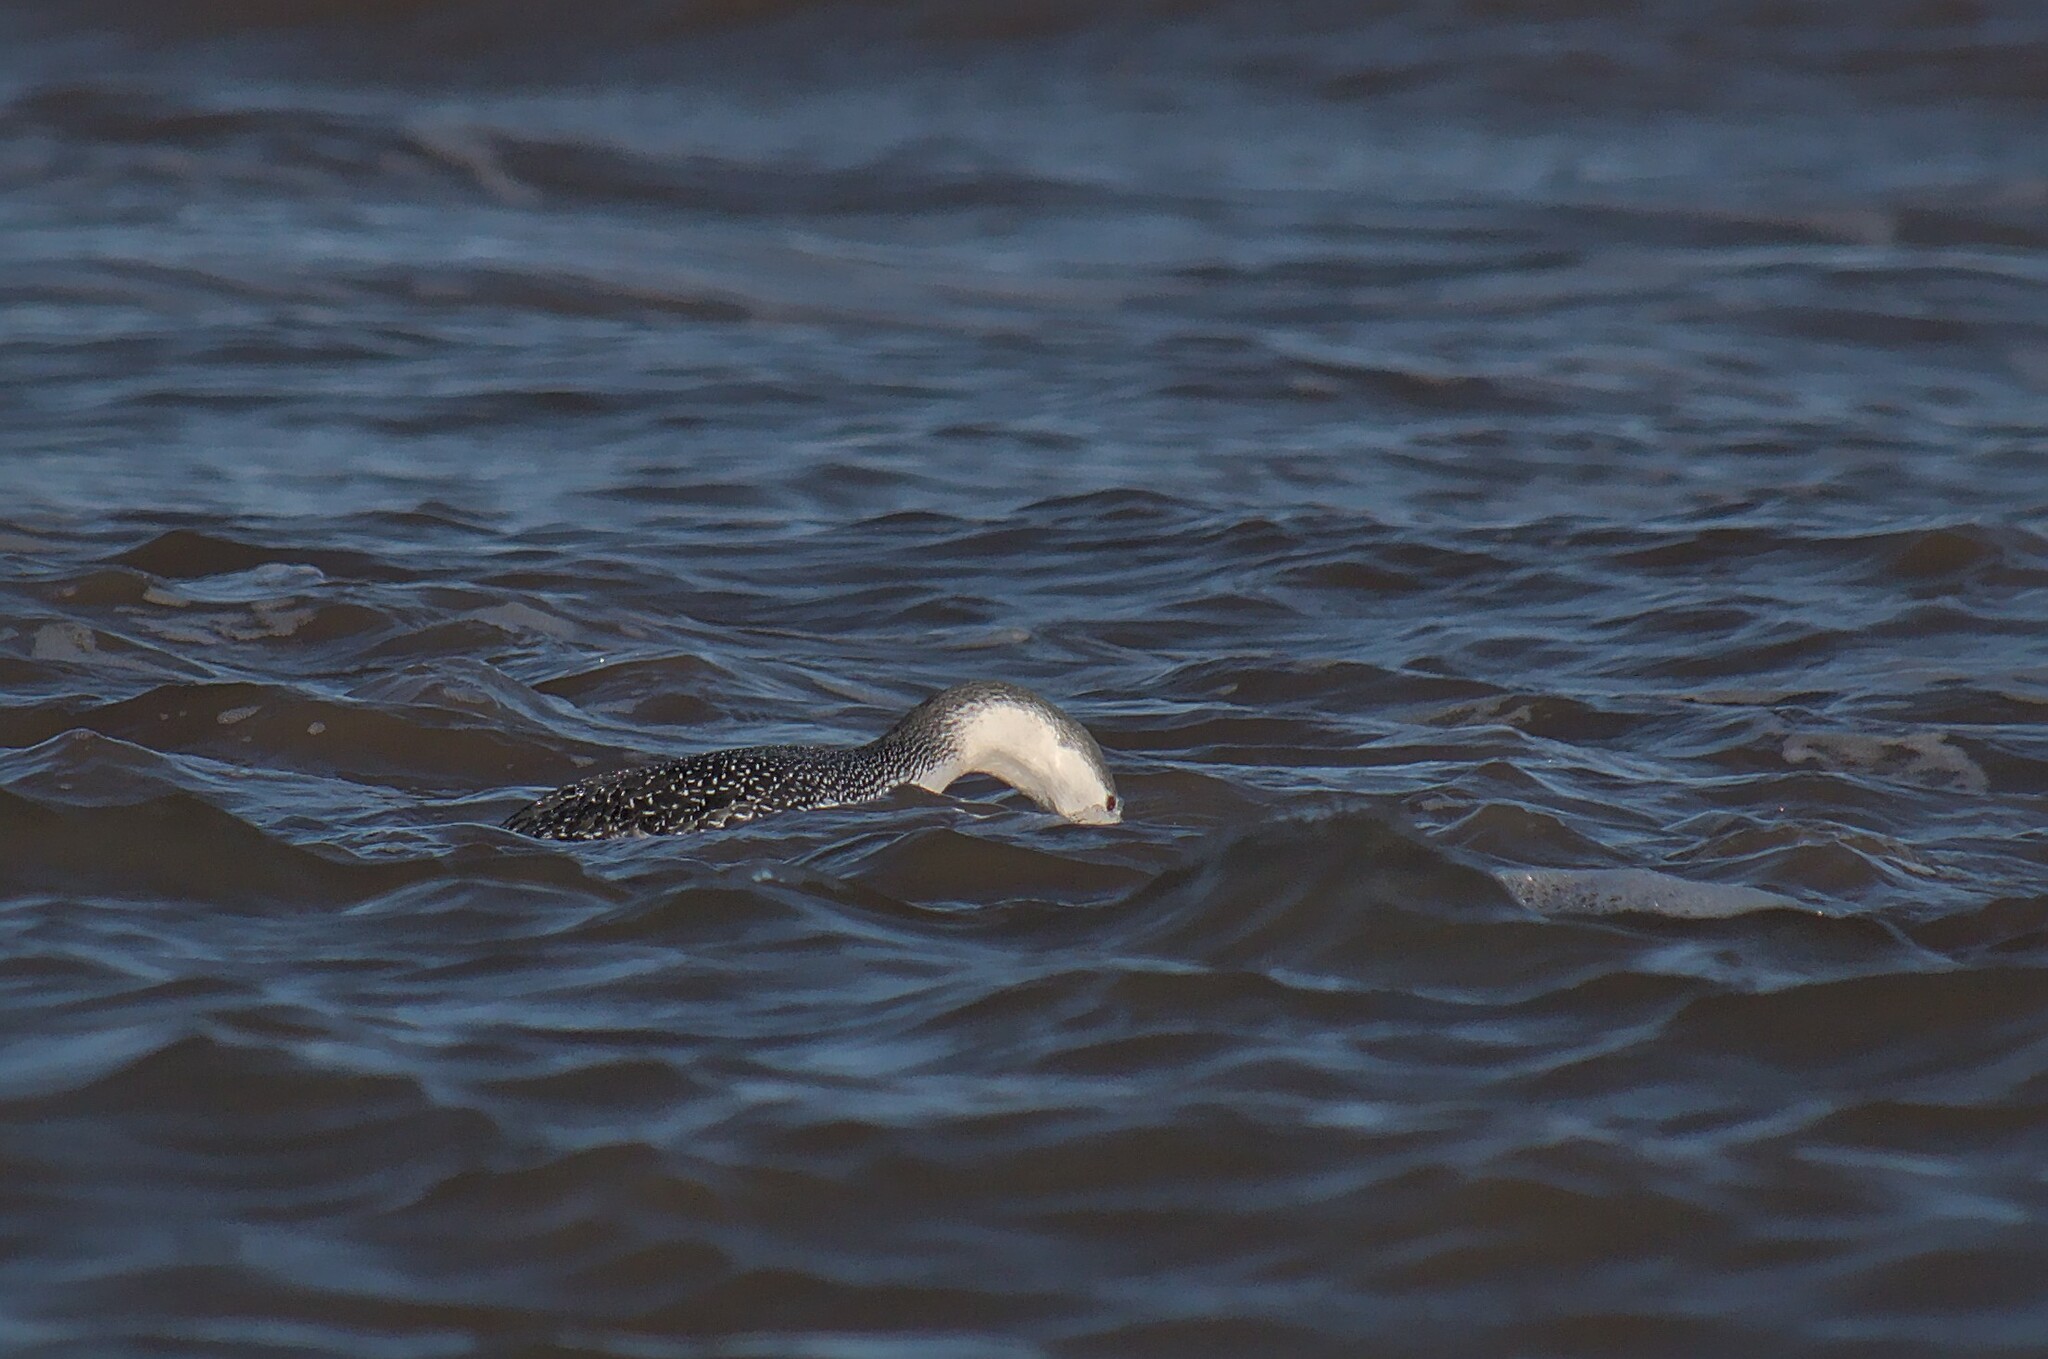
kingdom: Animalia
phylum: Chordata
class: Aves
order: Gaviiformes
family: Gaviidae
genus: Gavia
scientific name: Gavia stellata
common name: Red-throated loon
